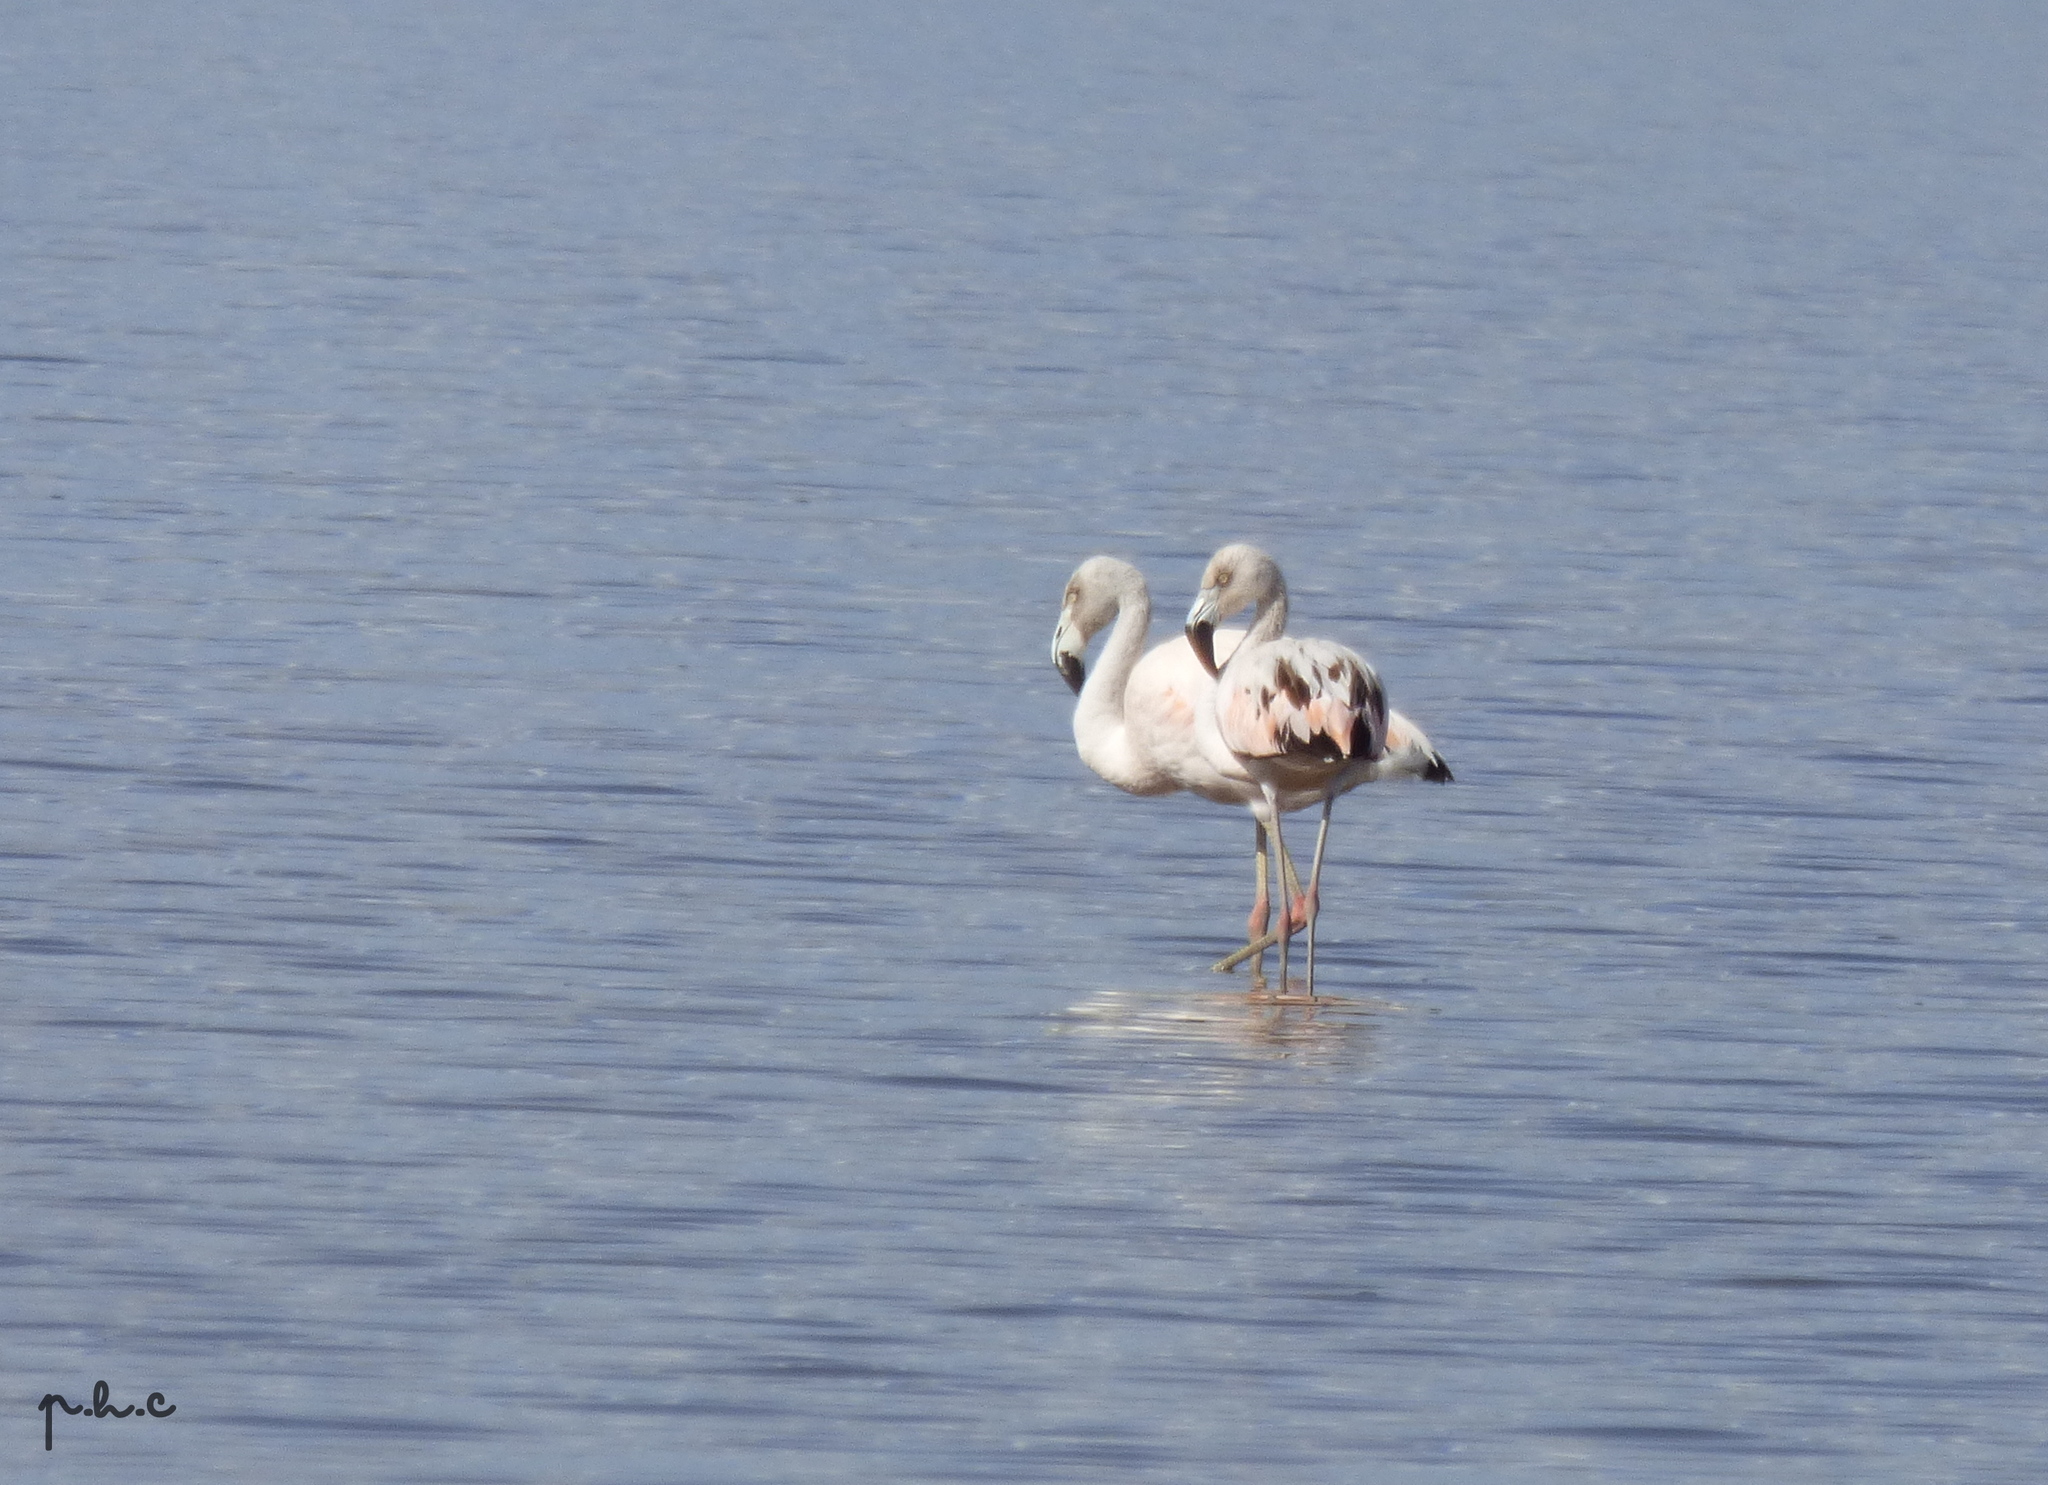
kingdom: Animalia
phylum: Chordata
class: Aves
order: Phoenicopteriformes
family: Phoenicopteridae
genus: Phoenicopterus
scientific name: Phoenicopterus chilensis
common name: Chilean flamingo
